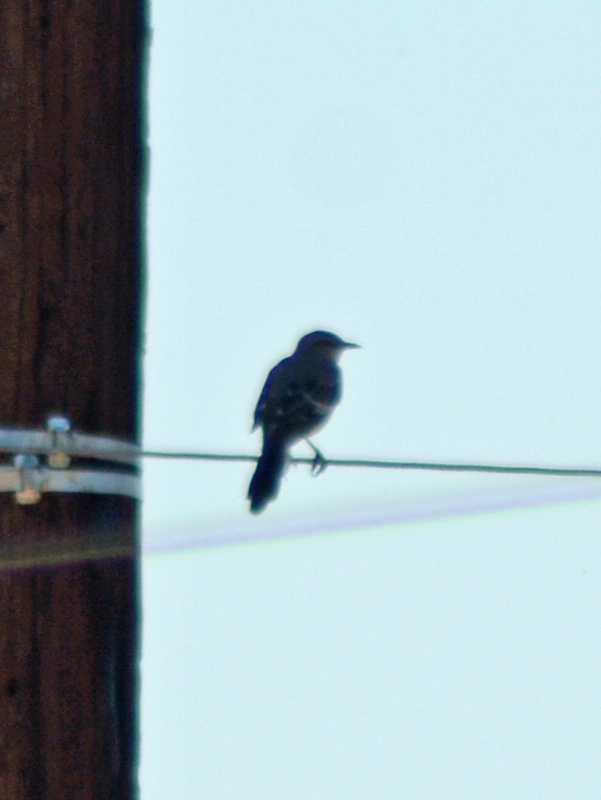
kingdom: Animalia
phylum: Chordata
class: Aves
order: Passeriformes
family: Mimidae
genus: Mimus
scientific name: Mimus polyglottos
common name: Northern mockingbird
